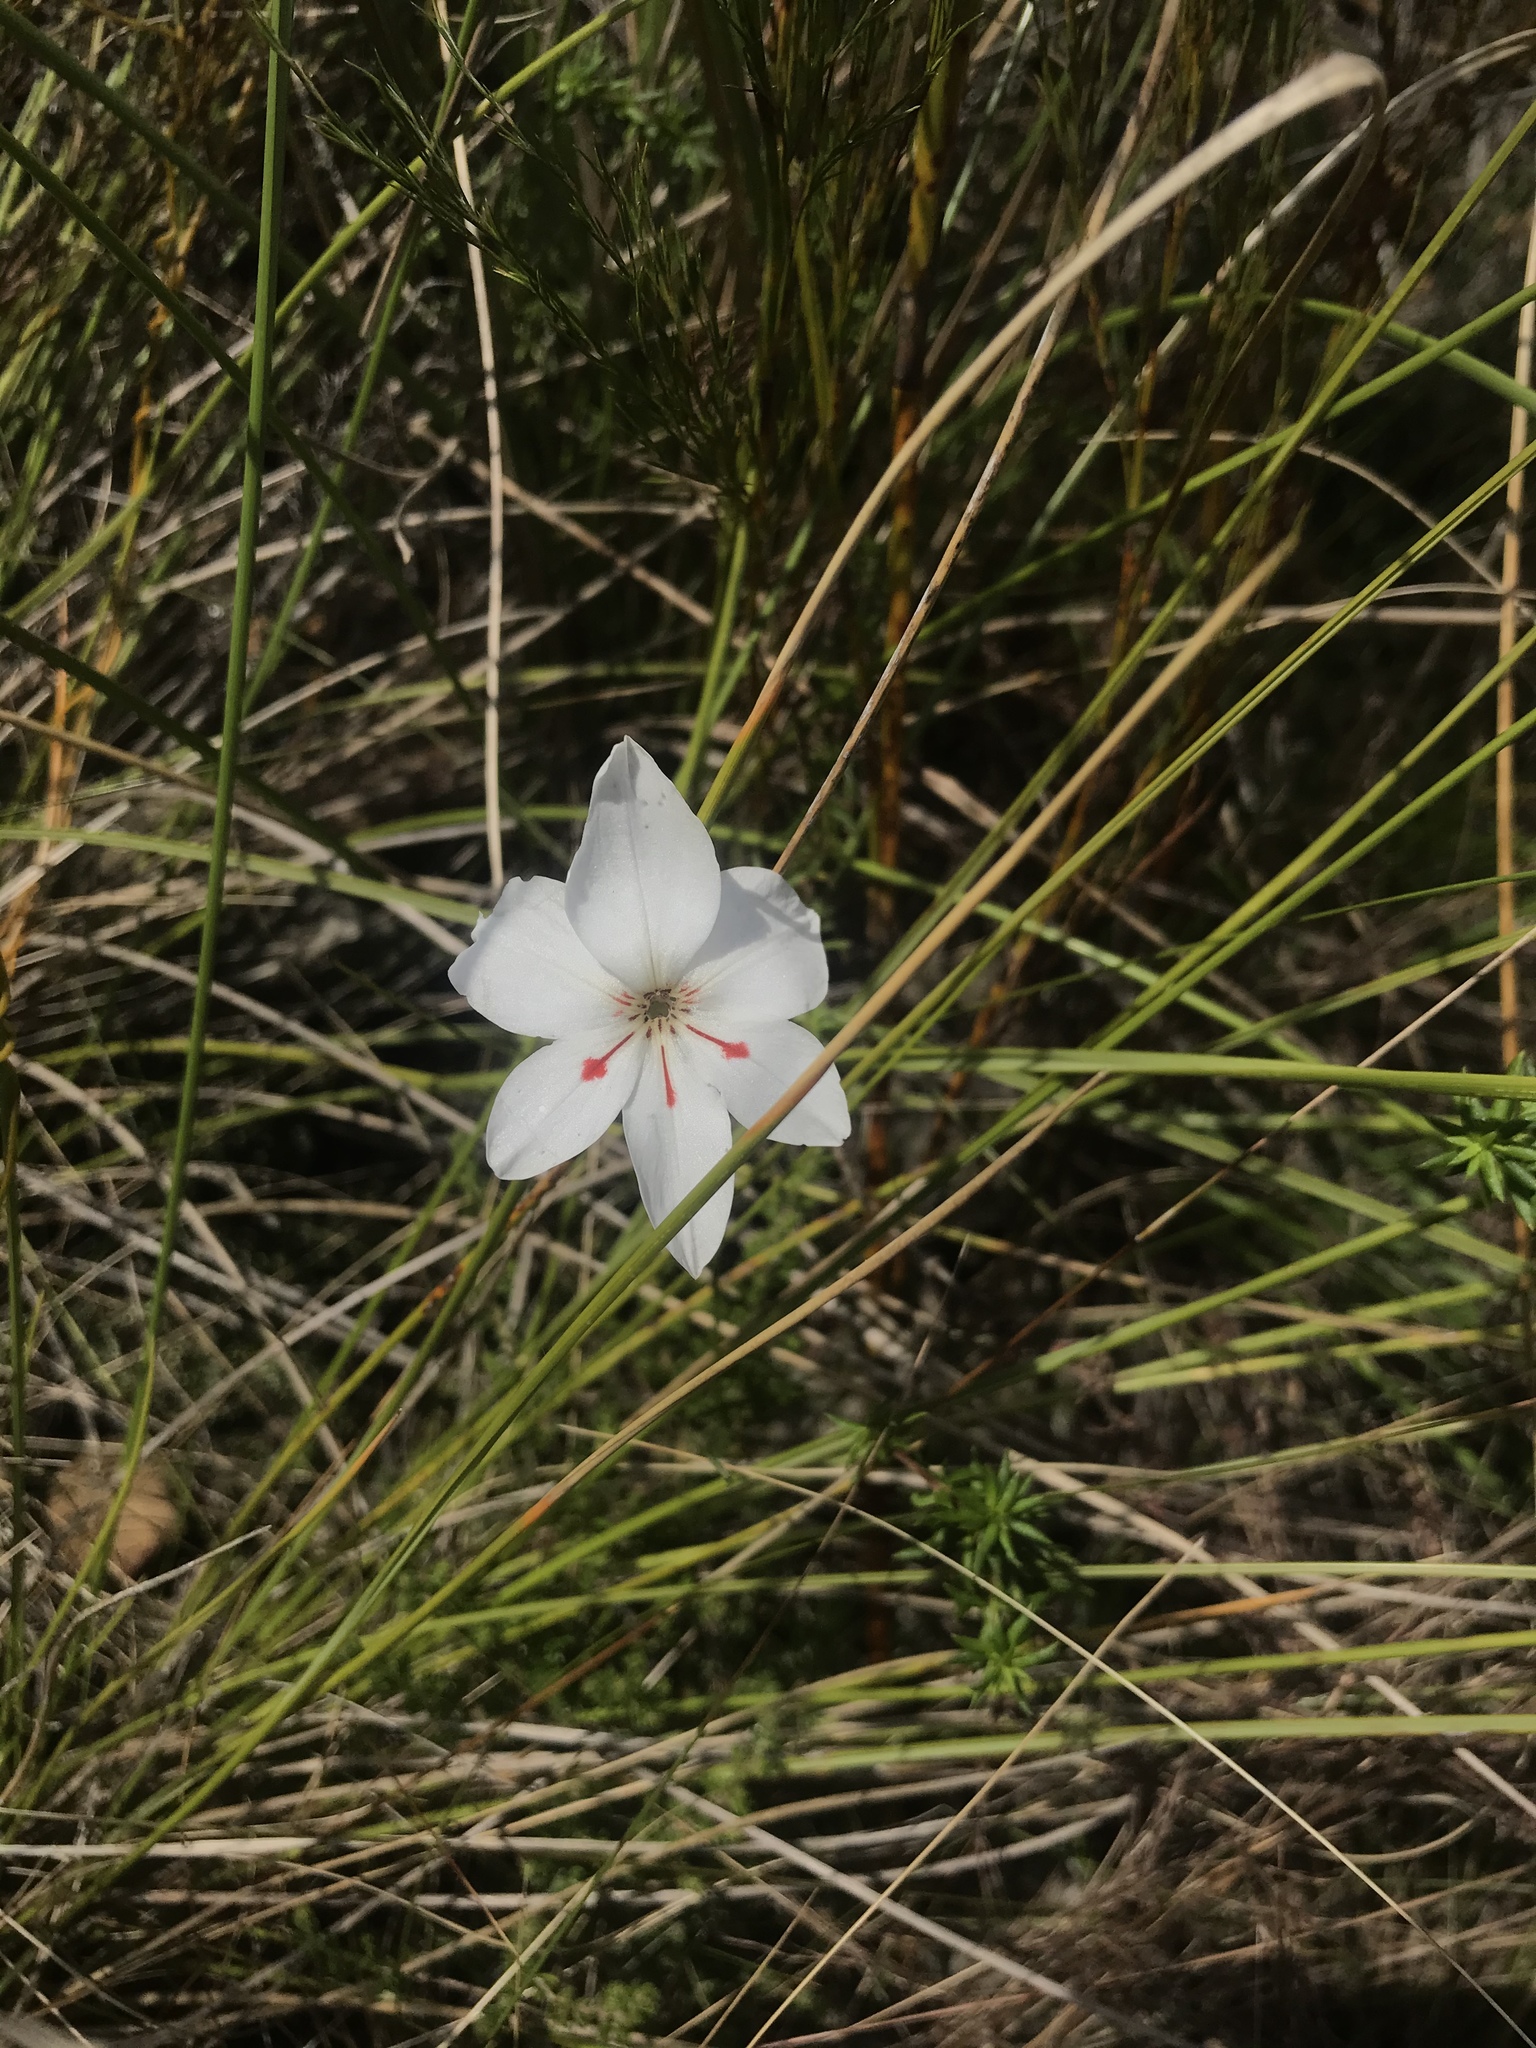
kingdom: Plantae
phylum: Tracheophyta
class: Liliopsida
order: Asparagales
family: Iridaceae
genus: Gladiolus
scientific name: Gladiolus debilis
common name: Painted-lady
